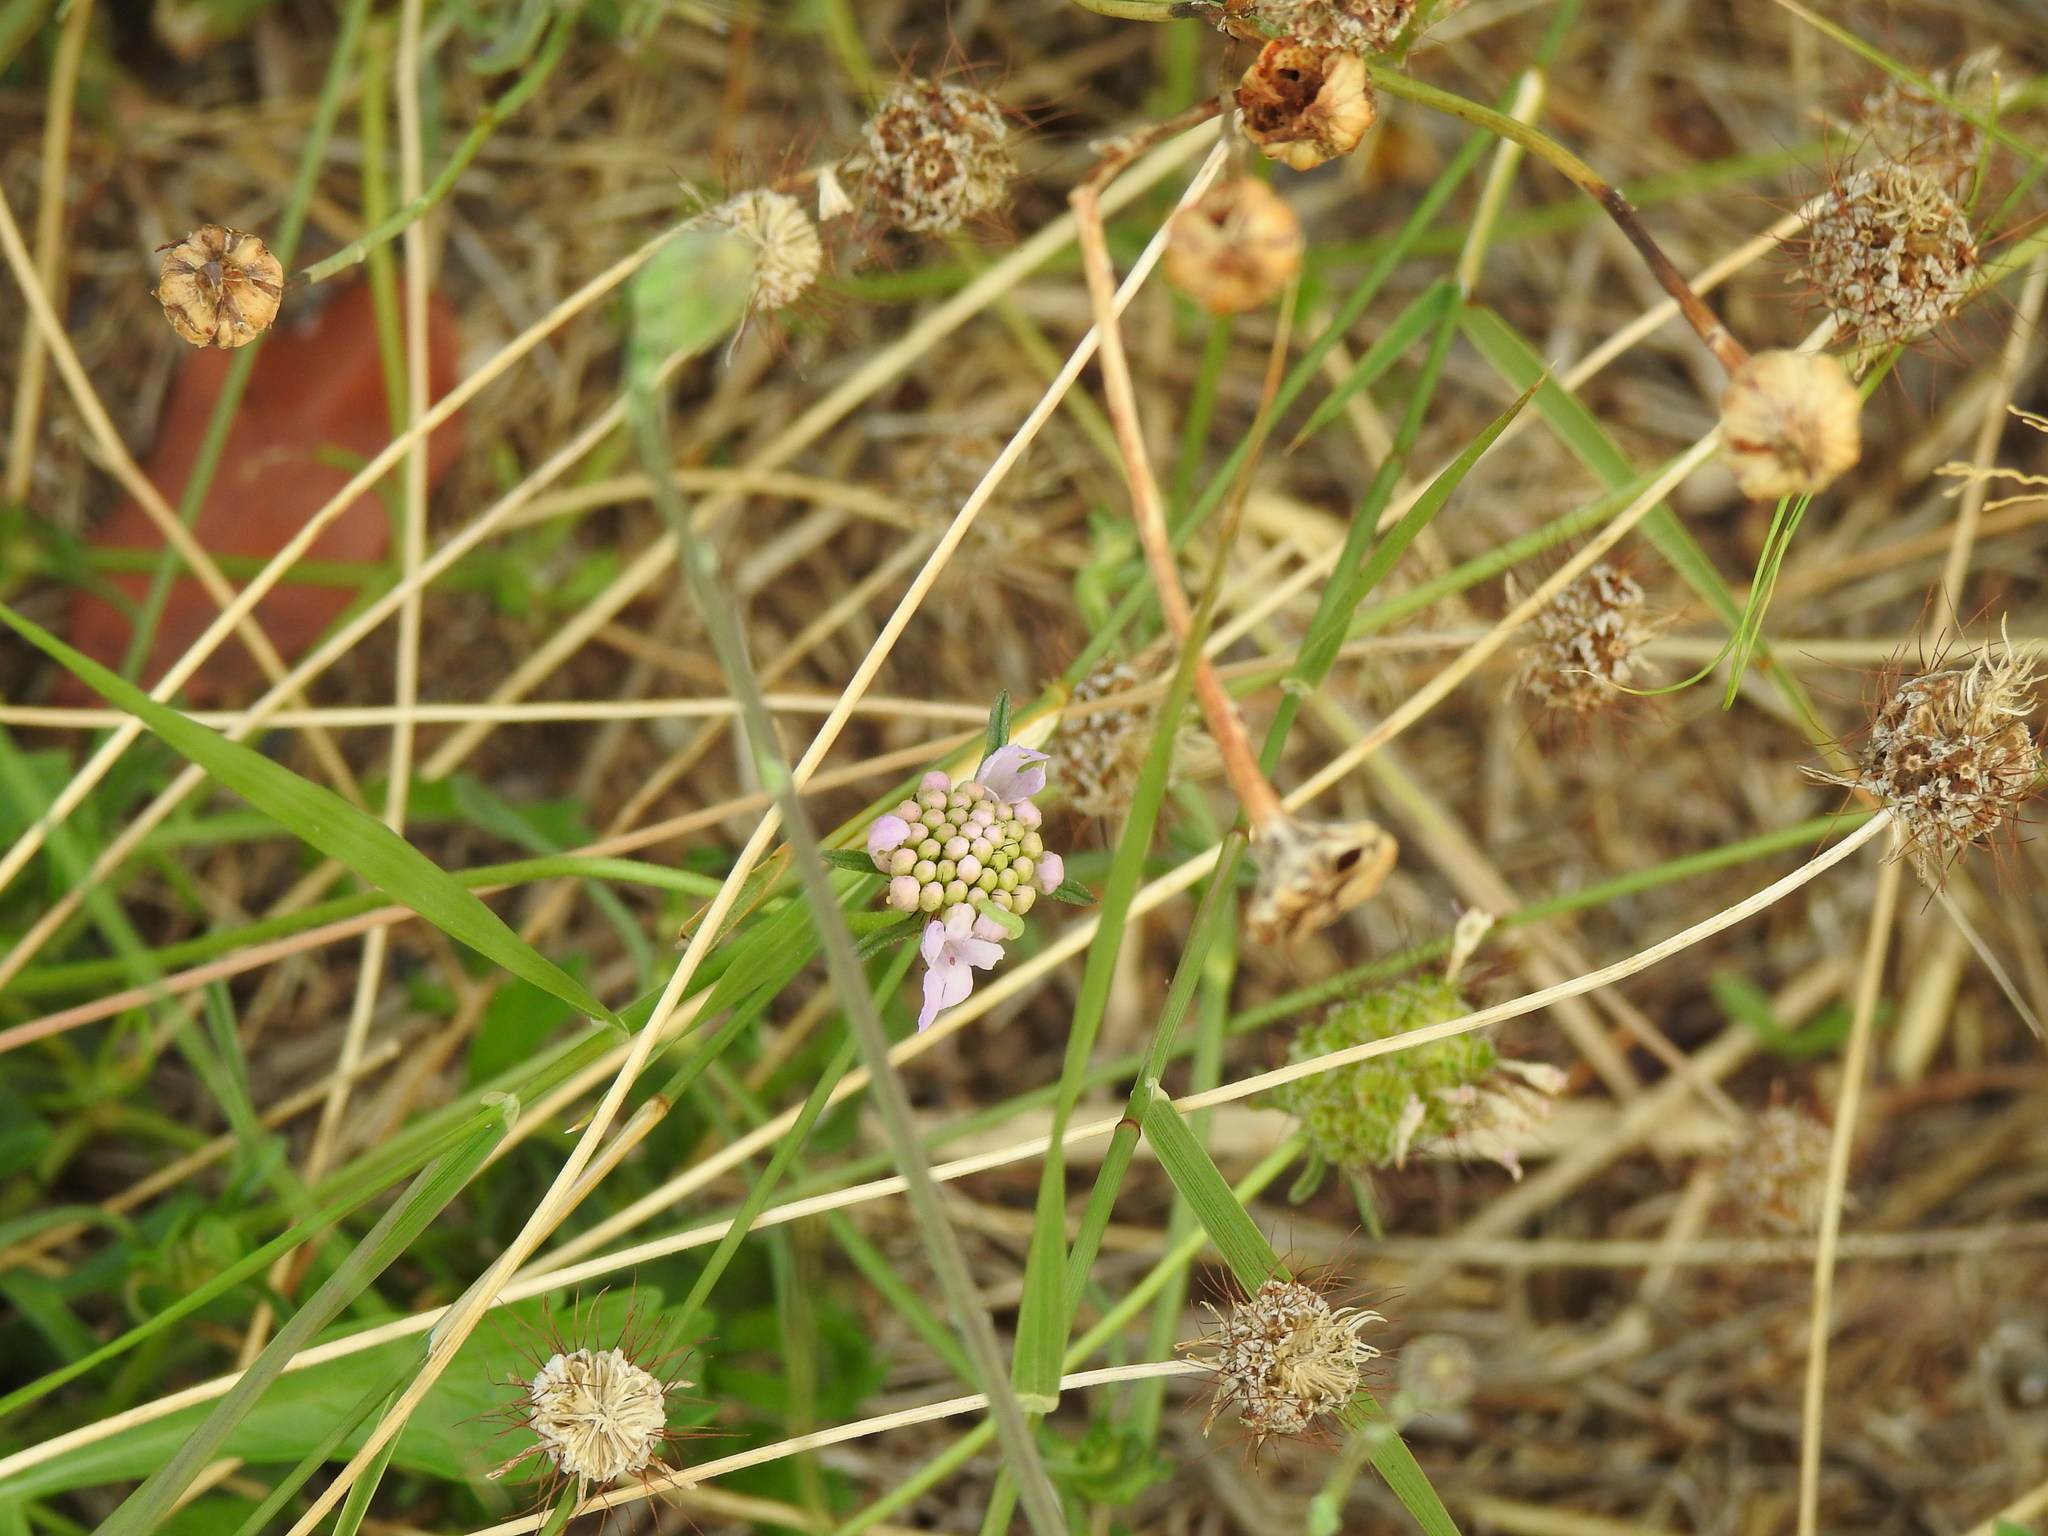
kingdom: Plantae
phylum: Tracheophyta
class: Magnoliopsida
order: Dipsacales
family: Caprifoliaceae
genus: Sixalix
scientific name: Sixalix atropurpurea
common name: Sweet scabious
